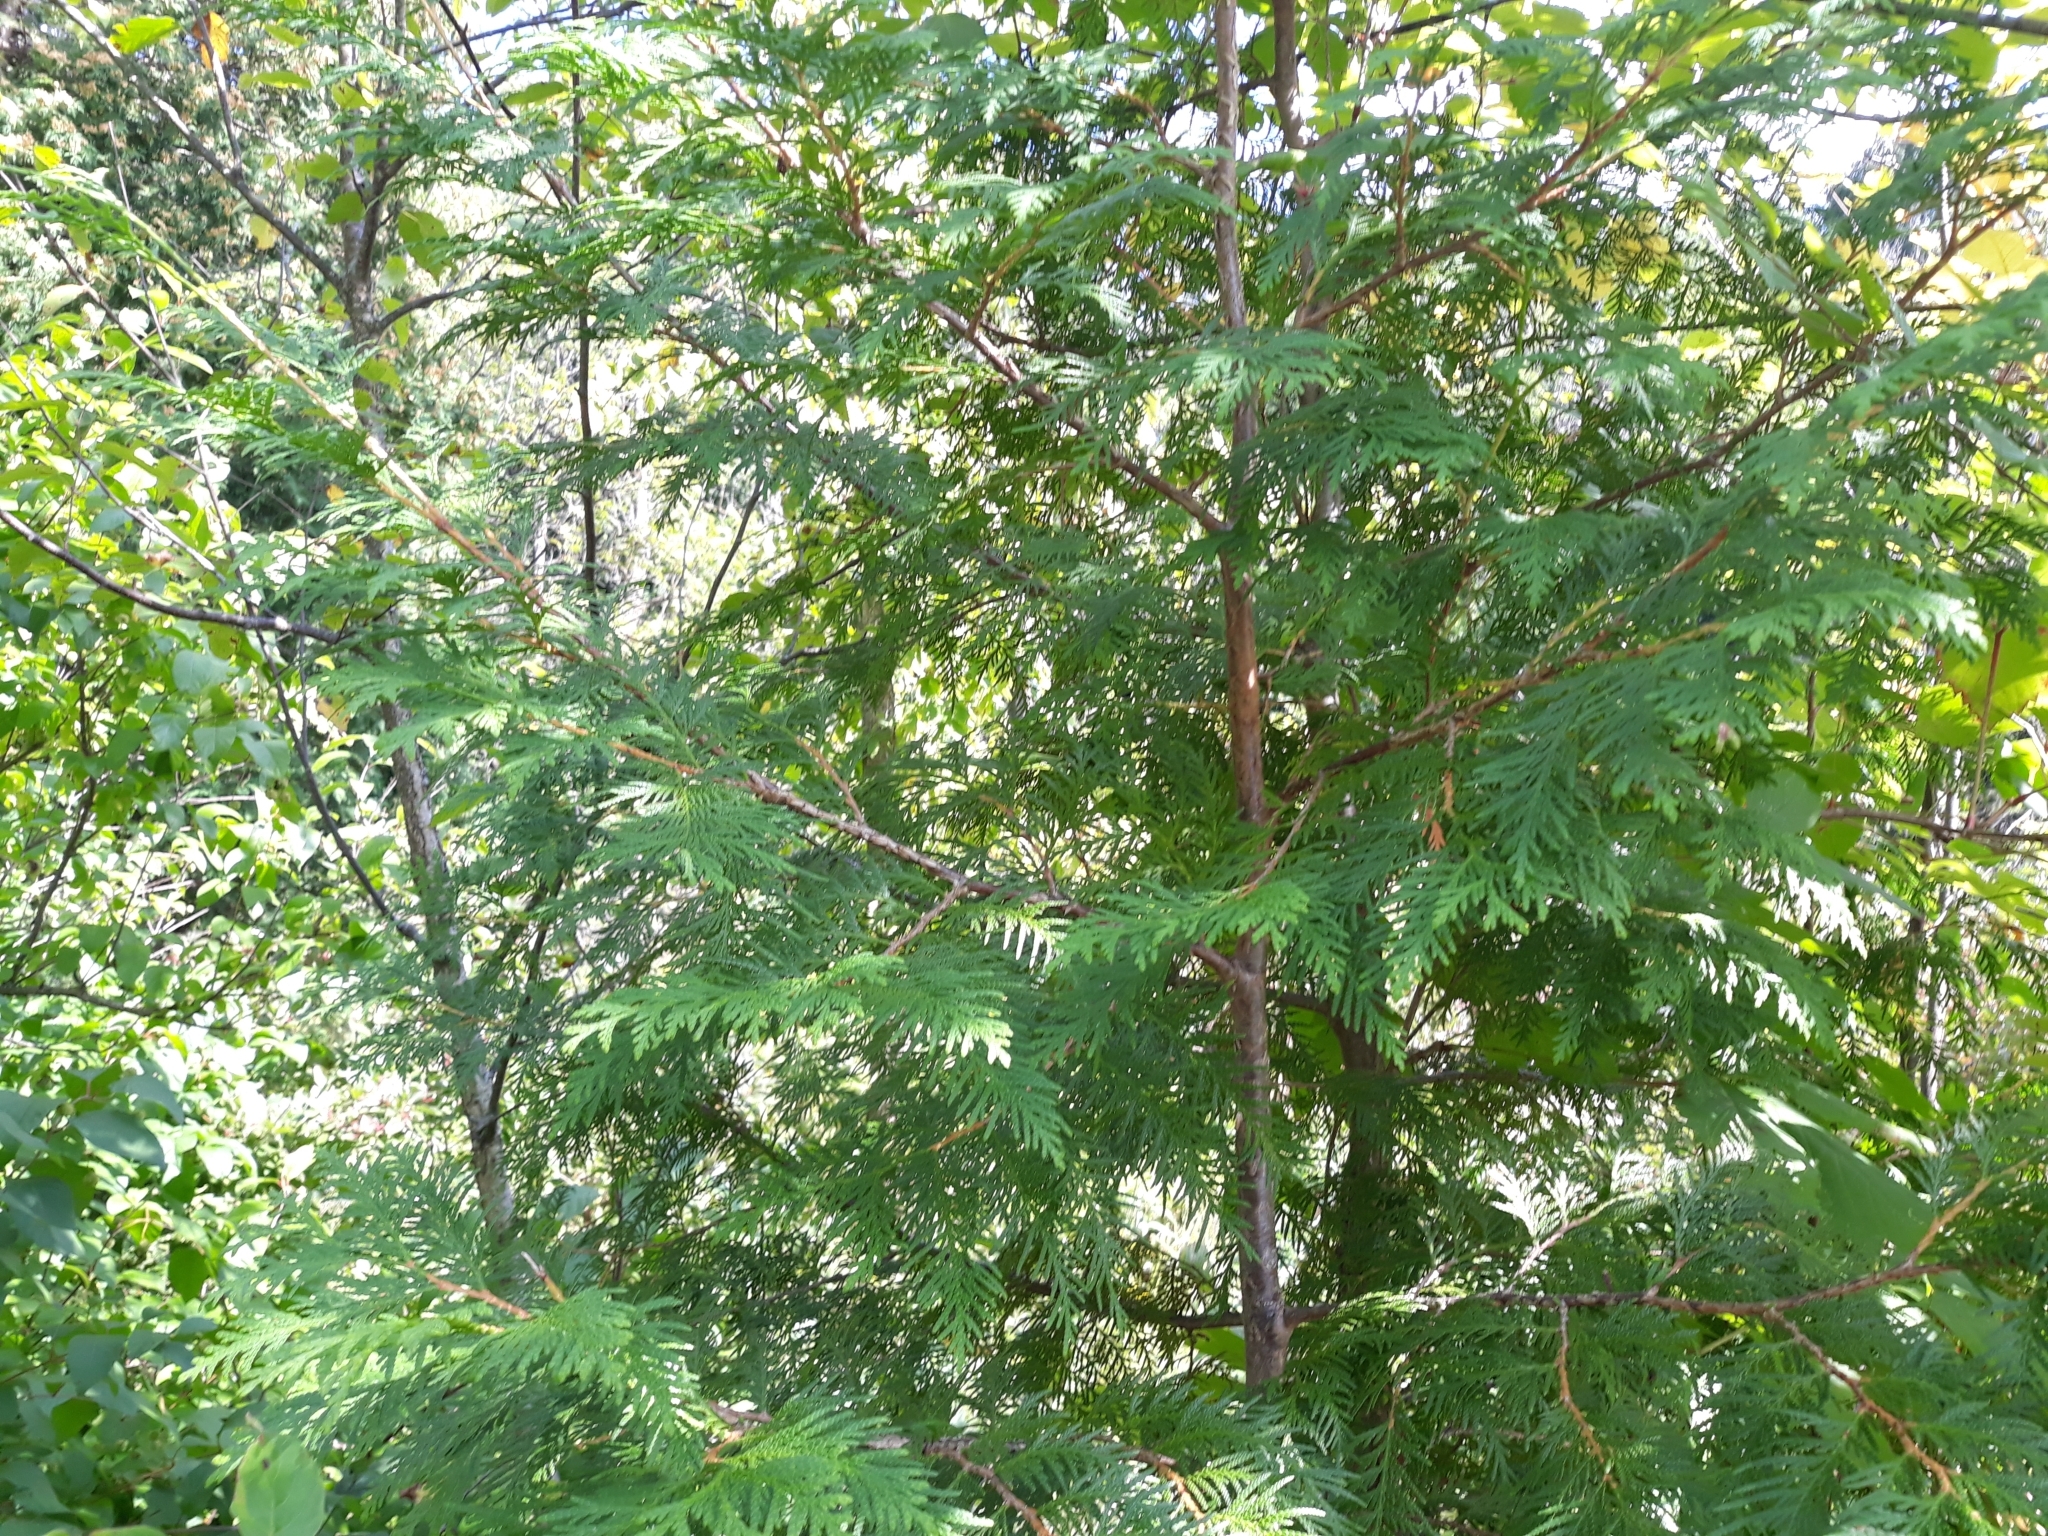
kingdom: Plantae
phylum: Tracheophyta
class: Pinopsida
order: Pinales
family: Cupressaceae
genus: Thuja
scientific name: Thuja occidentalis
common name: Northern white-cedar
